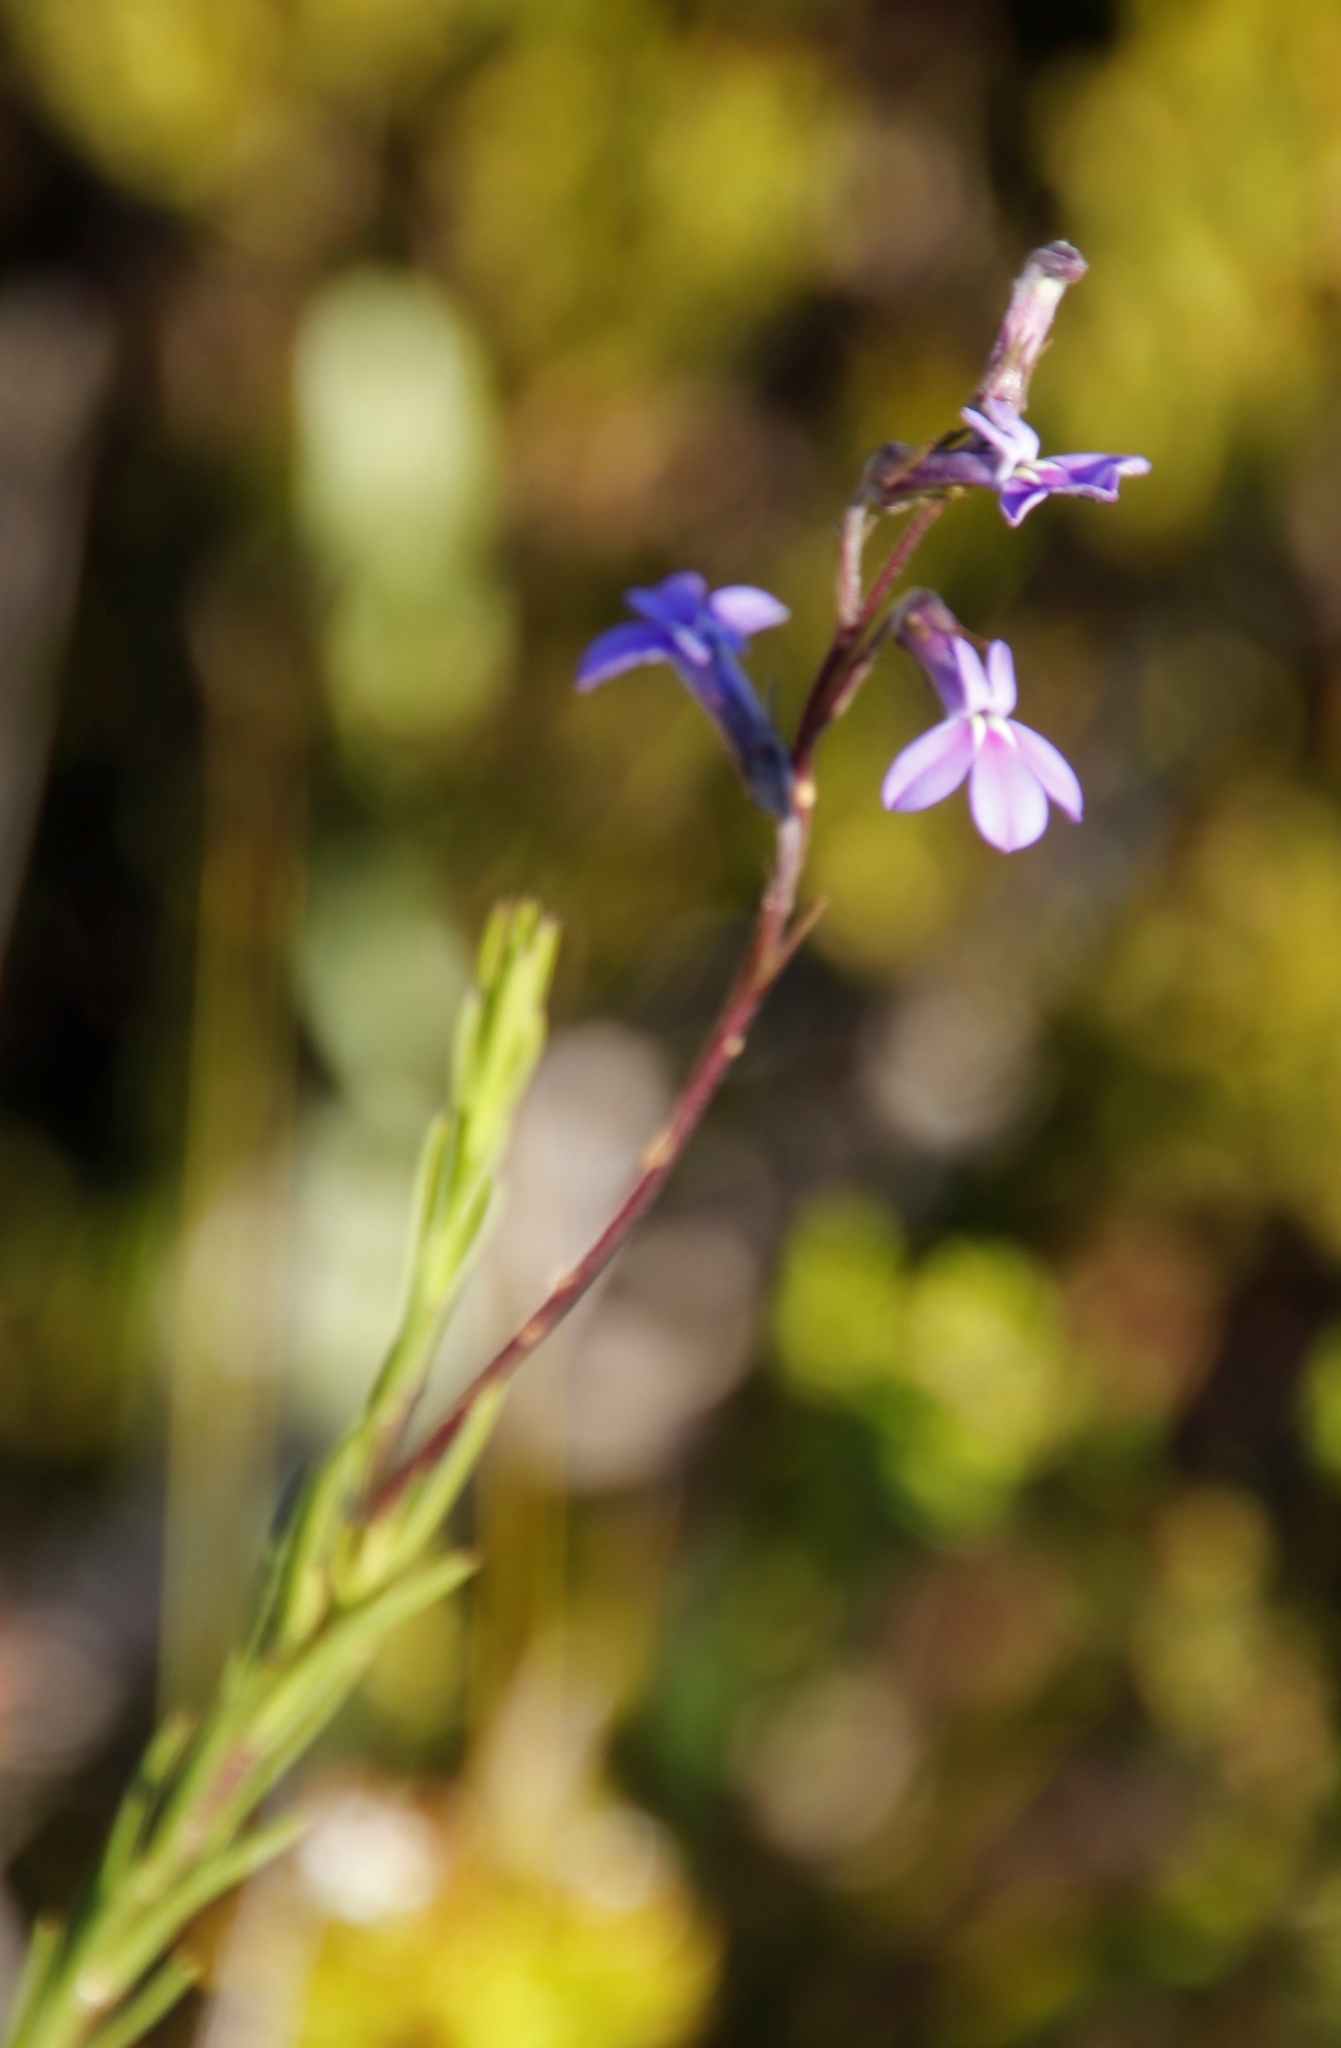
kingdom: Plantae
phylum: Tracheophyta
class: Magnoliopsida
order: Asterales
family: Campanulaceae
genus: Lobelia
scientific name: Lobelia pinifolia
